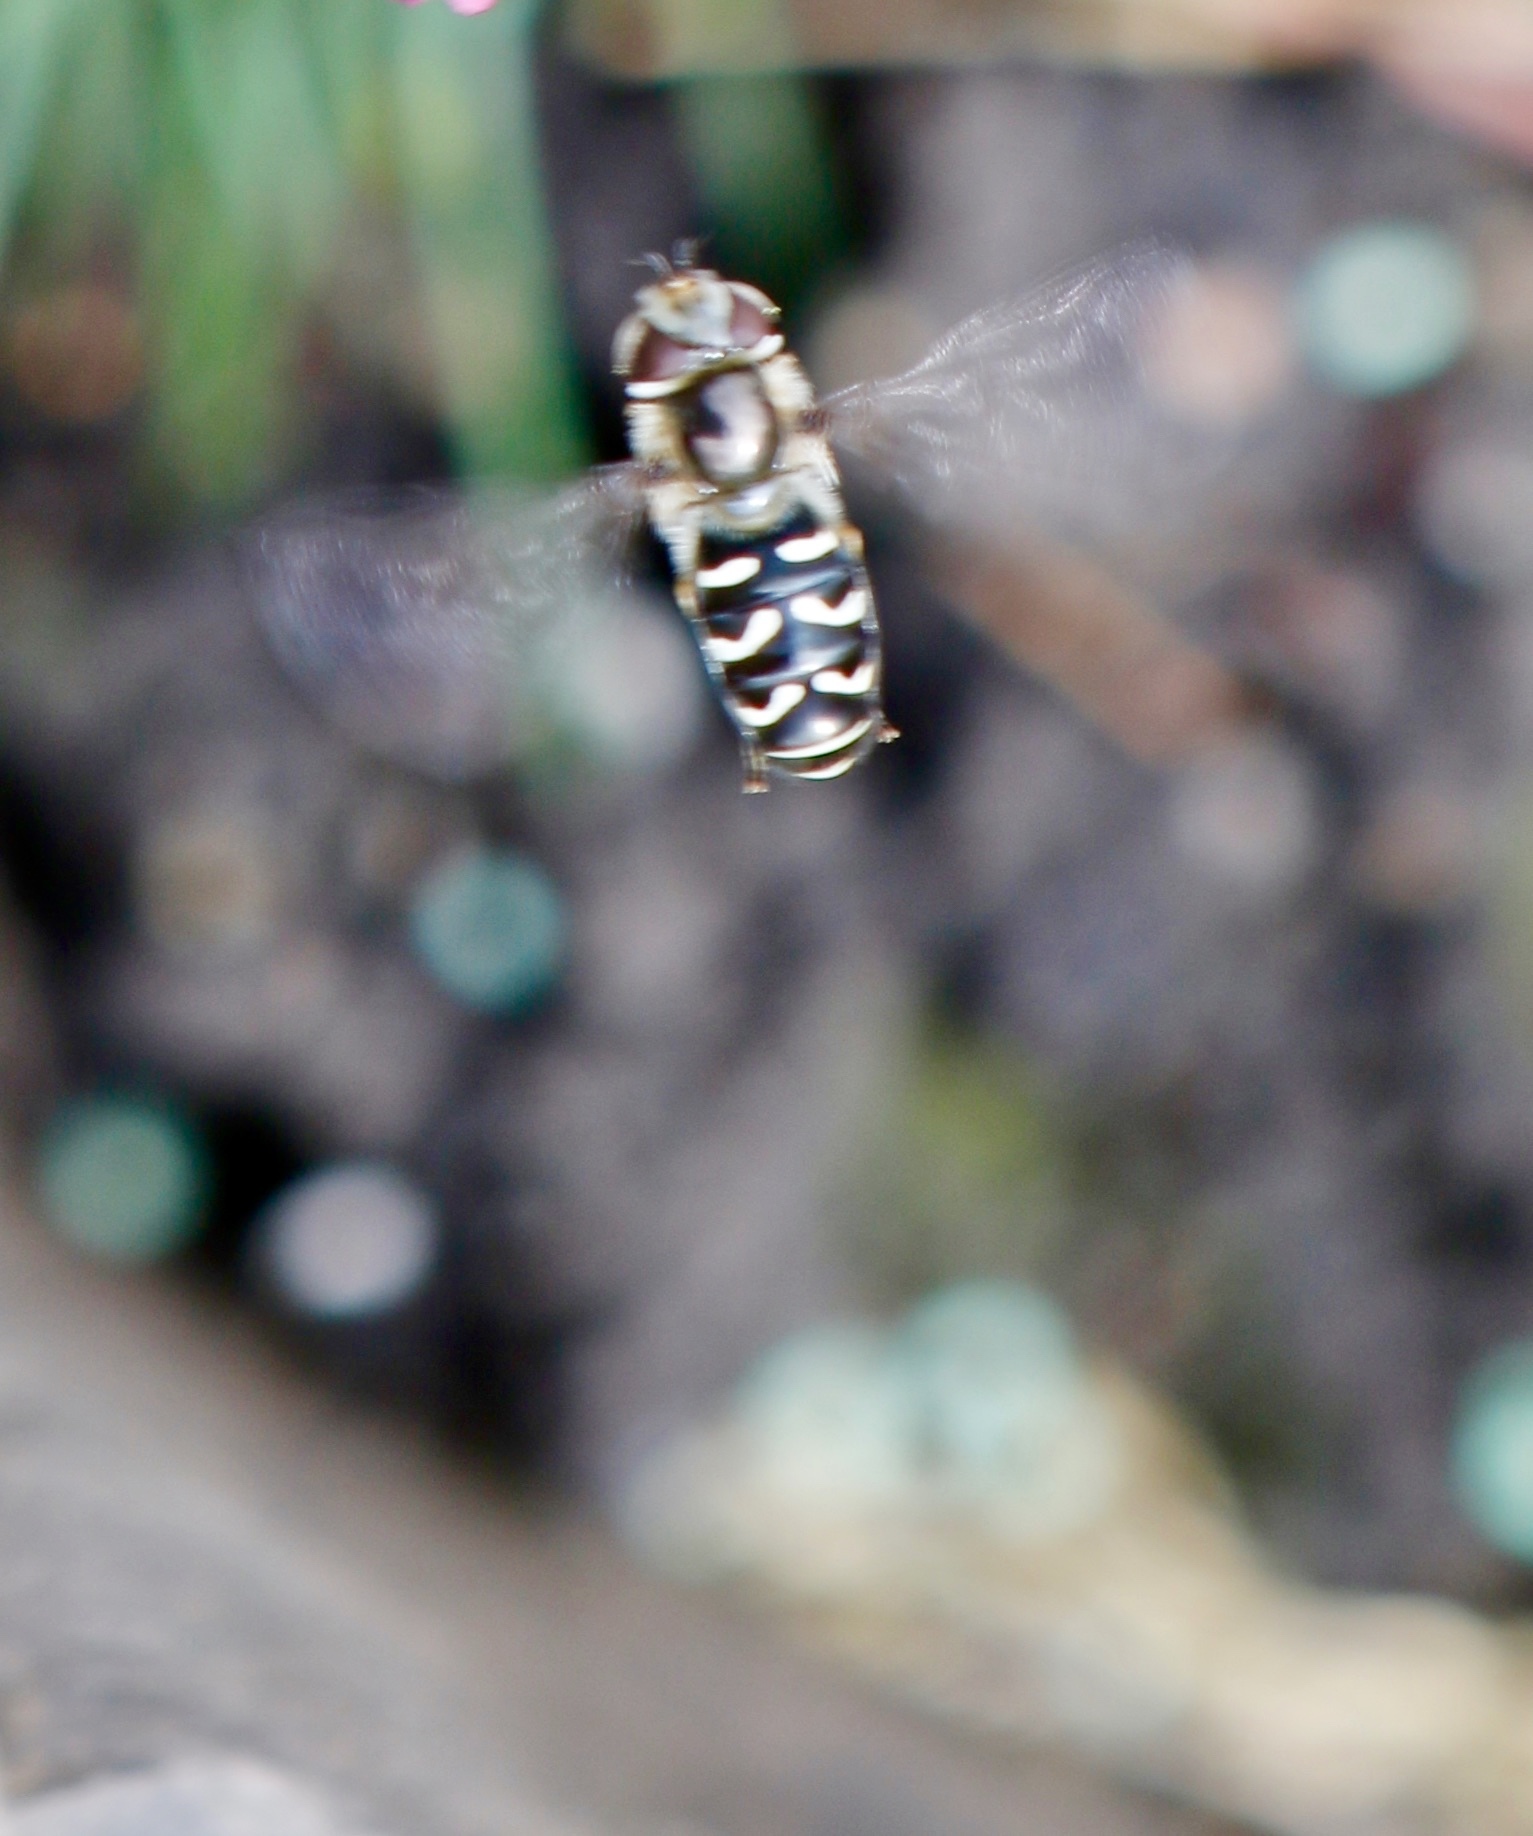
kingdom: Animalia
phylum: Arthropoda
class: Insecta
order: Diptera
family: Syrphidae
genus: Scaeva
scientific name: Scaeva affinis
